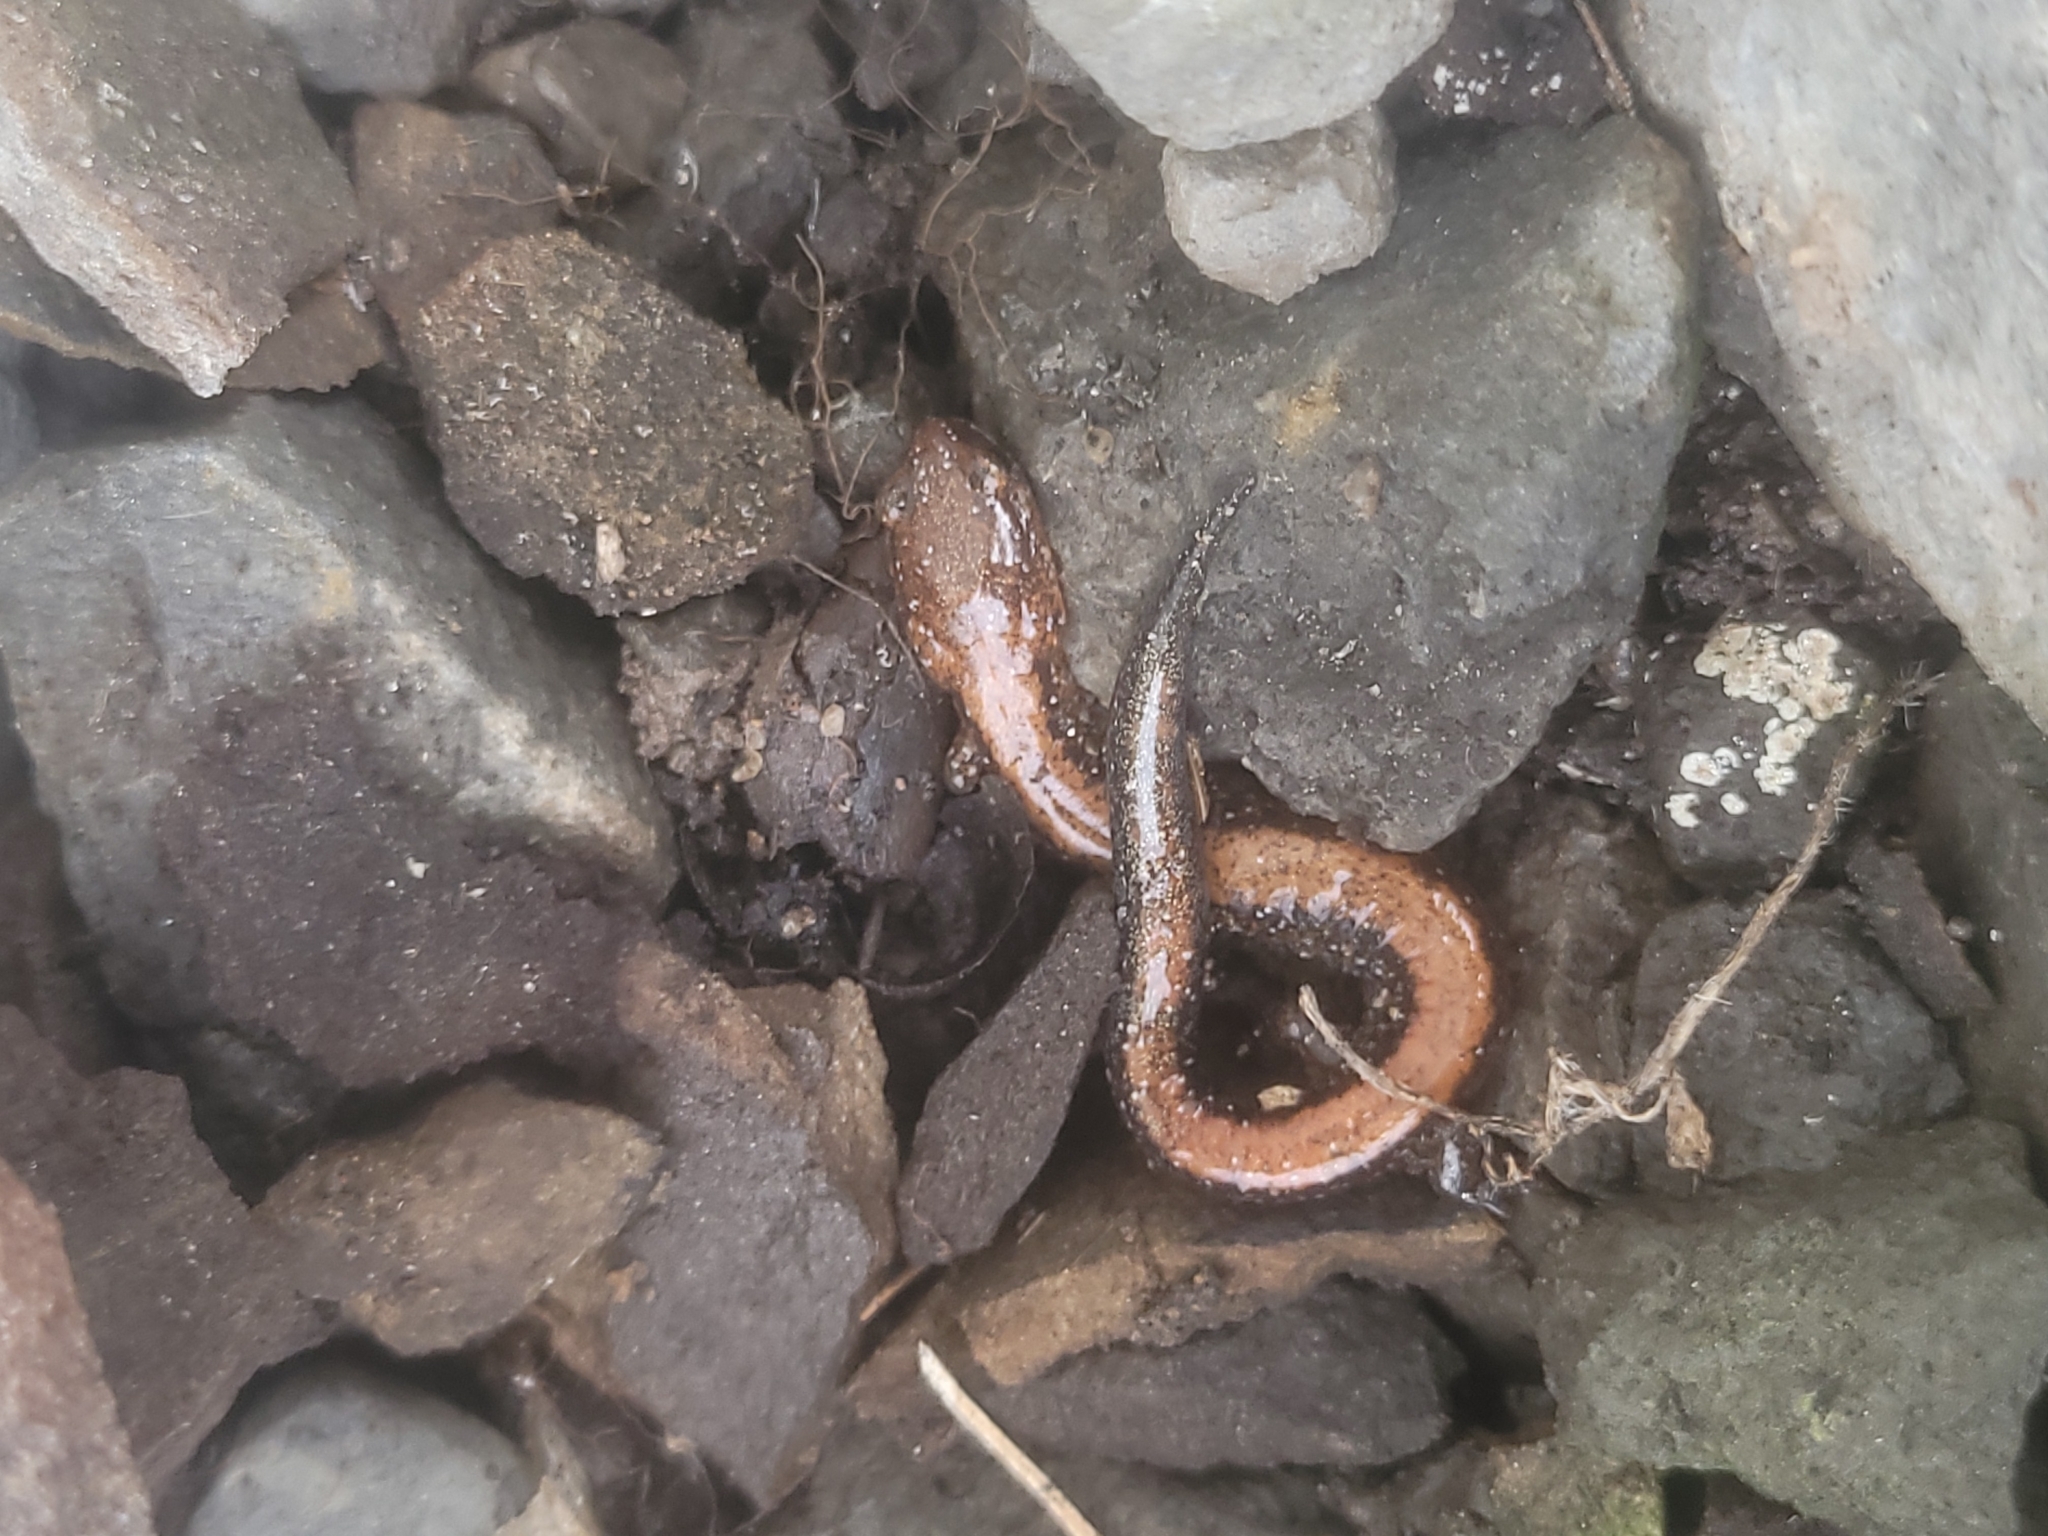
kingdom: Animalia
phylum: Chordata
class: Amphibia
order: Caudata
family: Plethodontidae
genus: Plethodon
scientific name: Plethodon cinereus
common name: Redback salamander
